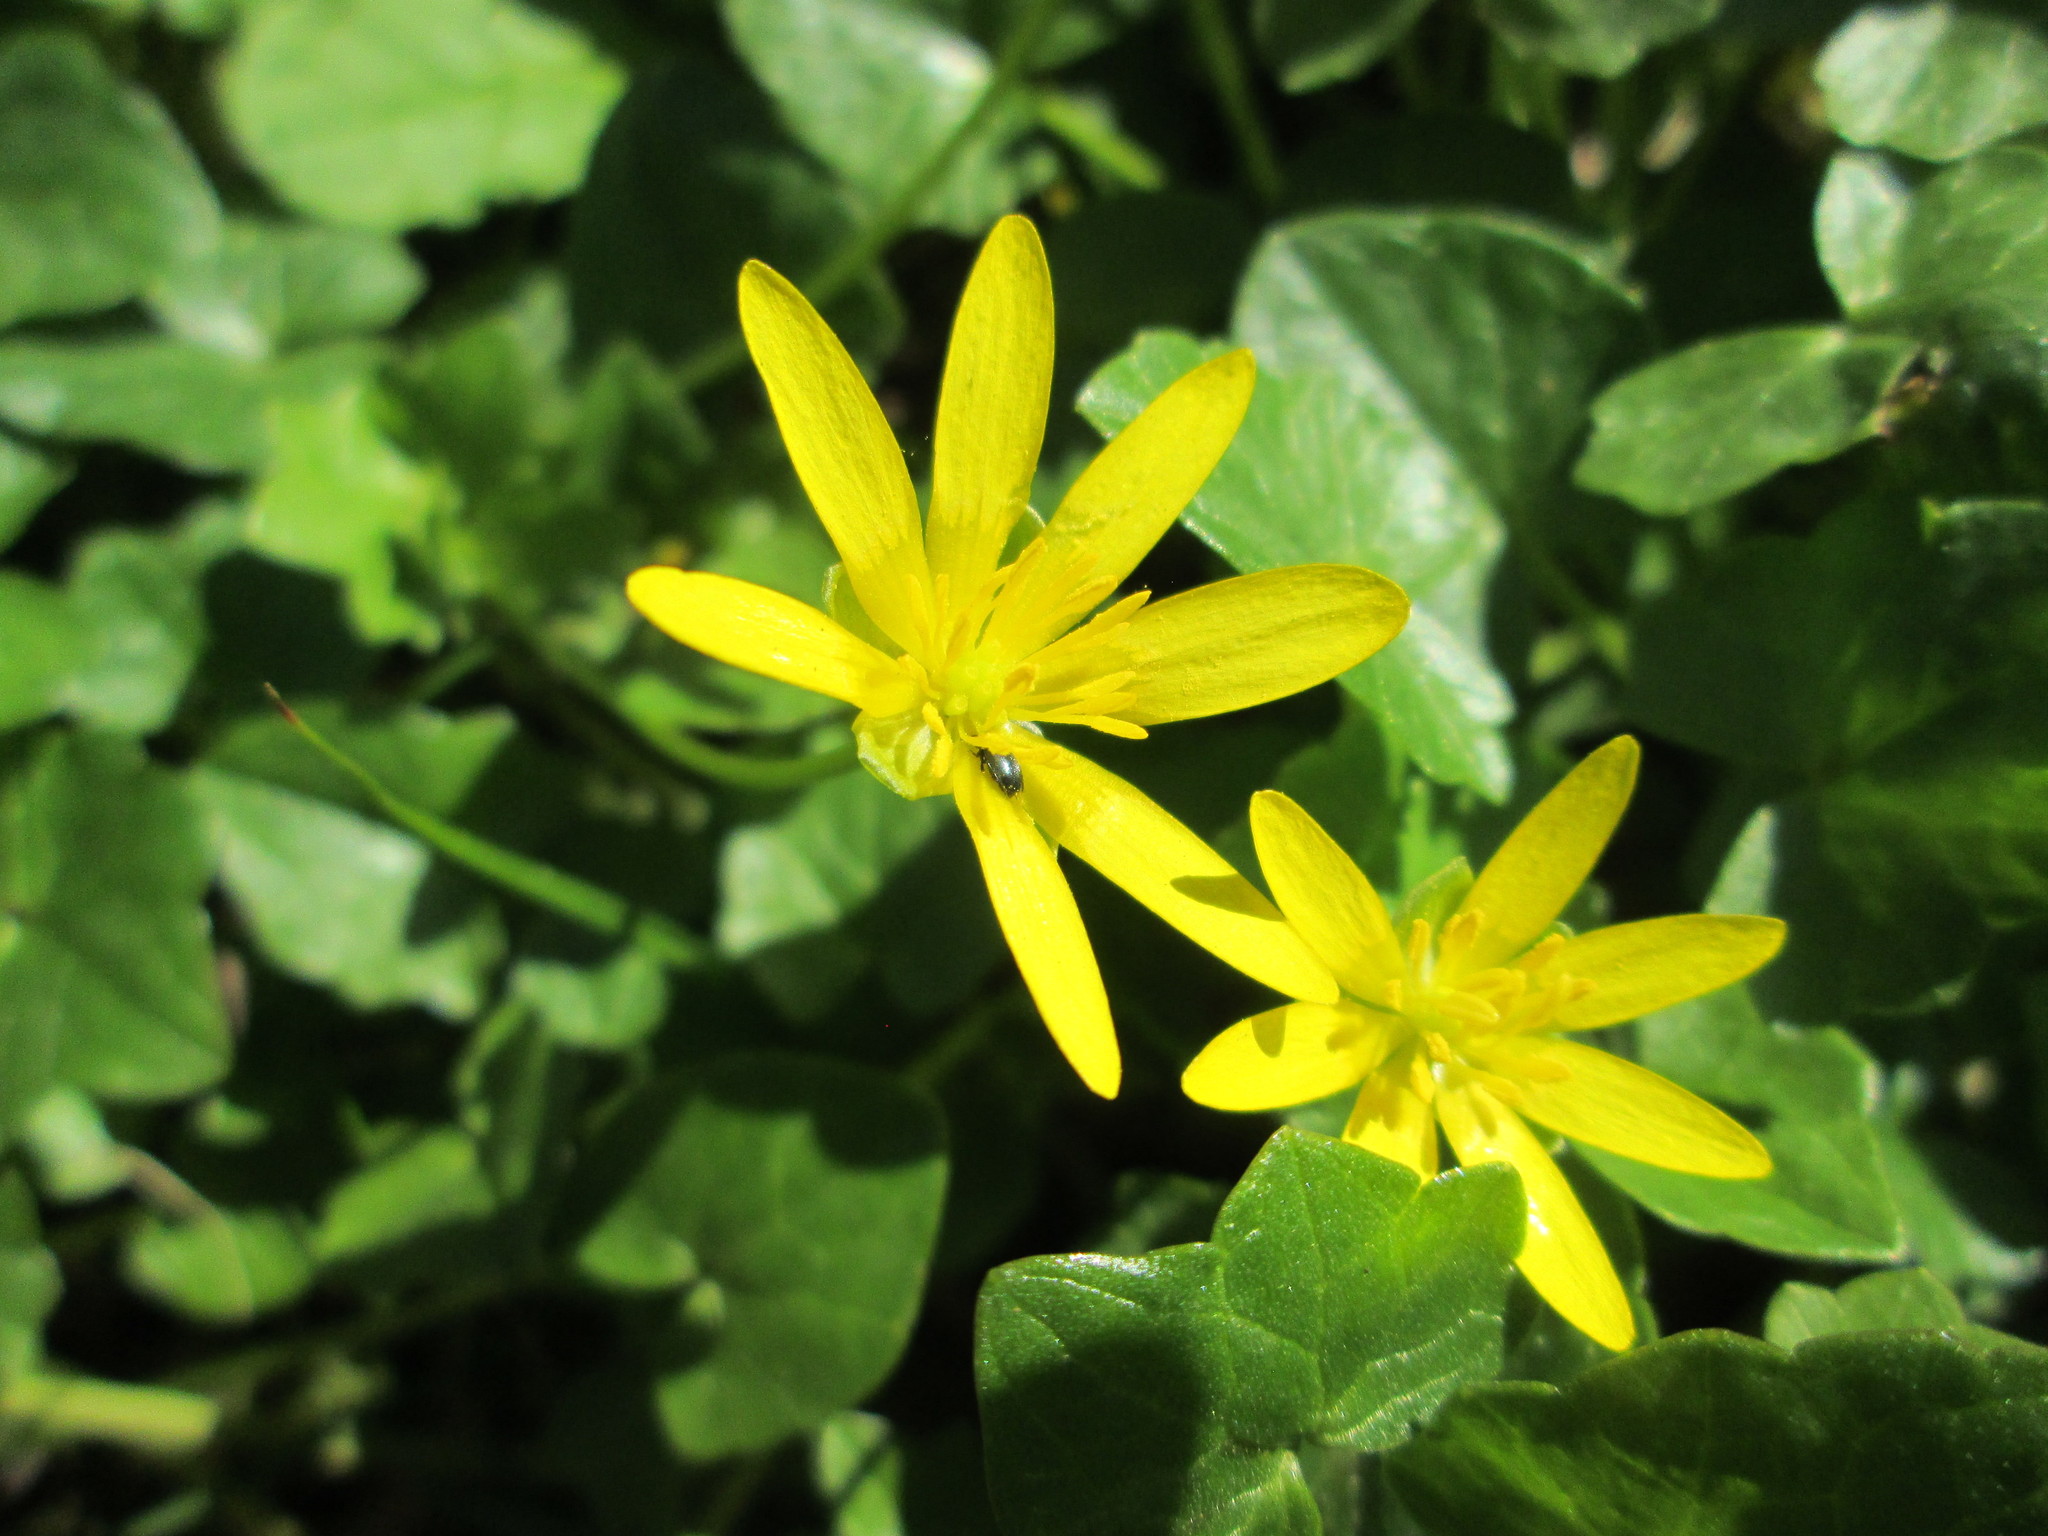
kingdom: Plantae
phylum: Tracheophyta
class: Magnoliopsida
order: Ranunculales
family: Ranunculaceae
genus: Ficaria
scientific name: Ficaria verna
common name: Lesser celandine
